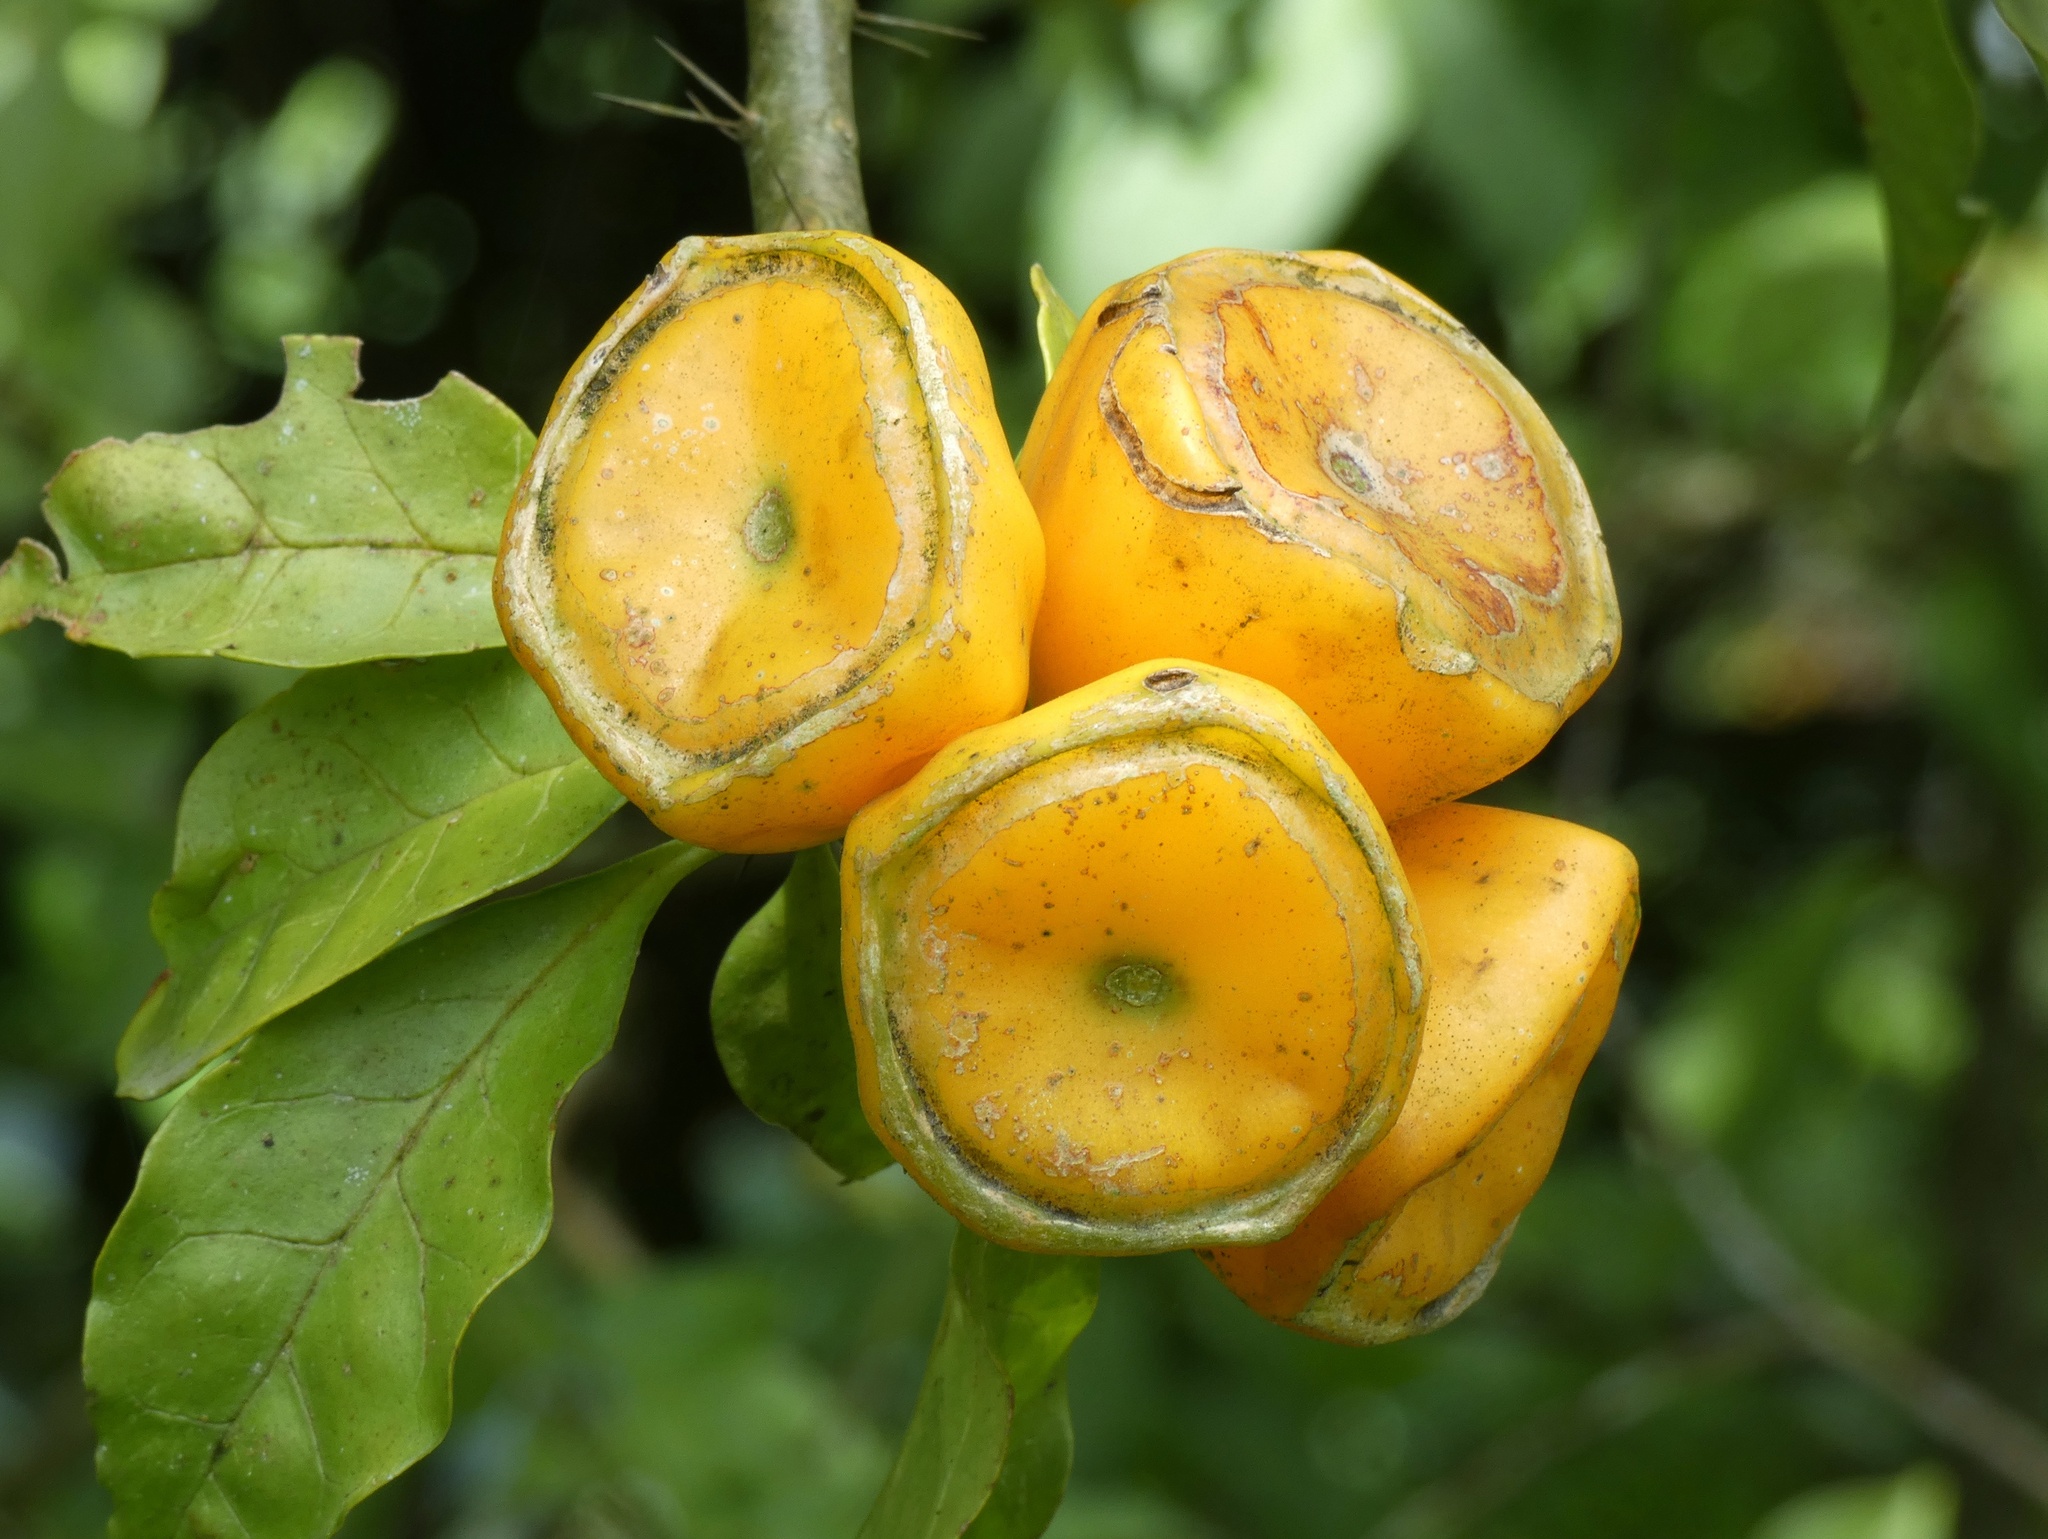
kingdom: Plantae
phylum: Tracheophyta
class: Magnoliopsida
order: Caryophyllales
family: Cactaceae
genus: Leuenbergeria
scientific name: Leuenbergeria bleo
